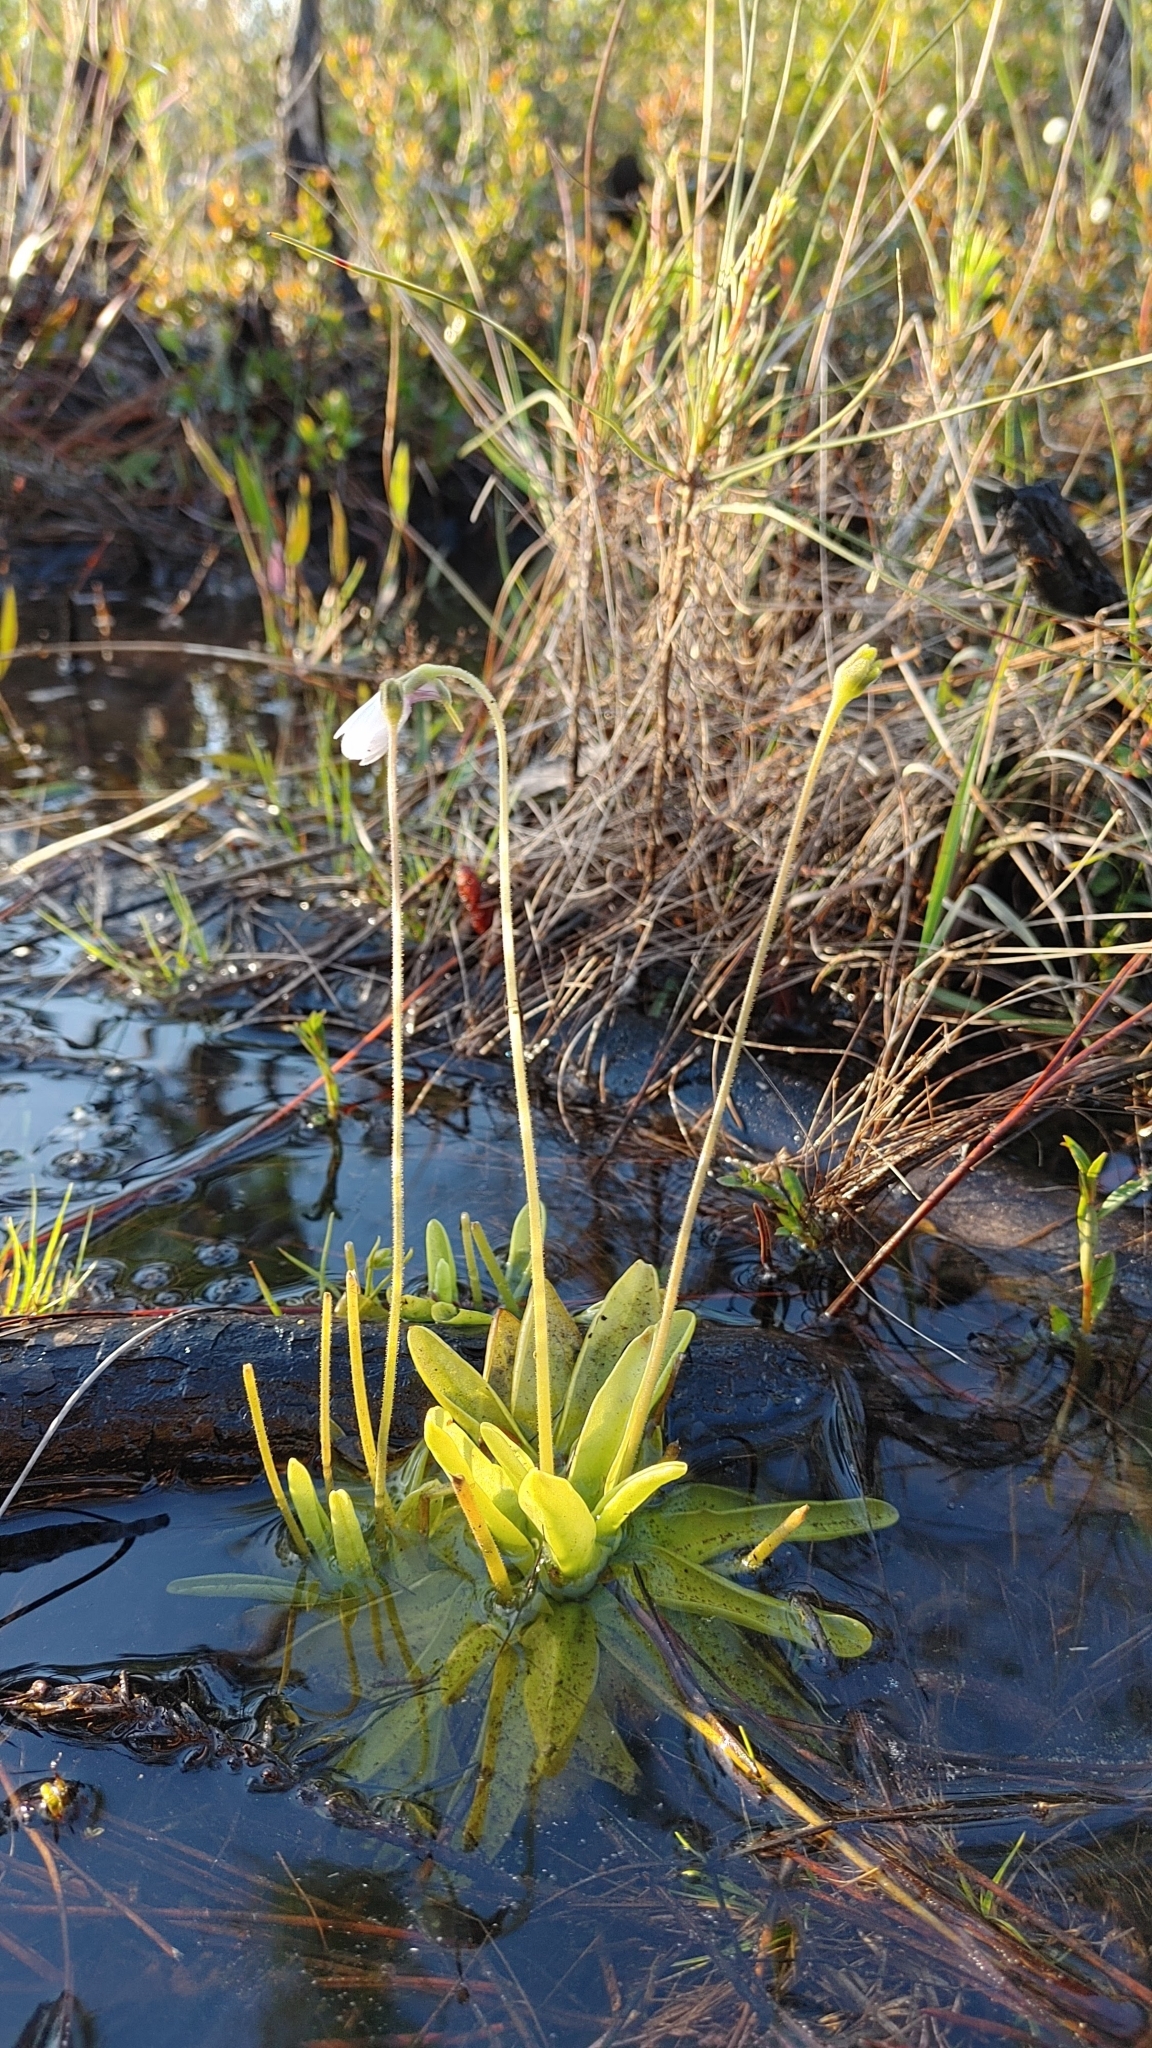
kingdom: Plantae
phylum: Tracheophyta
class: Magnoliopsida
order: Lamiales
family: Lentibulariaceae
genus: Pinguicula
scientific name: Pinguicula ionantha
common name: Godfrey's butterwort
